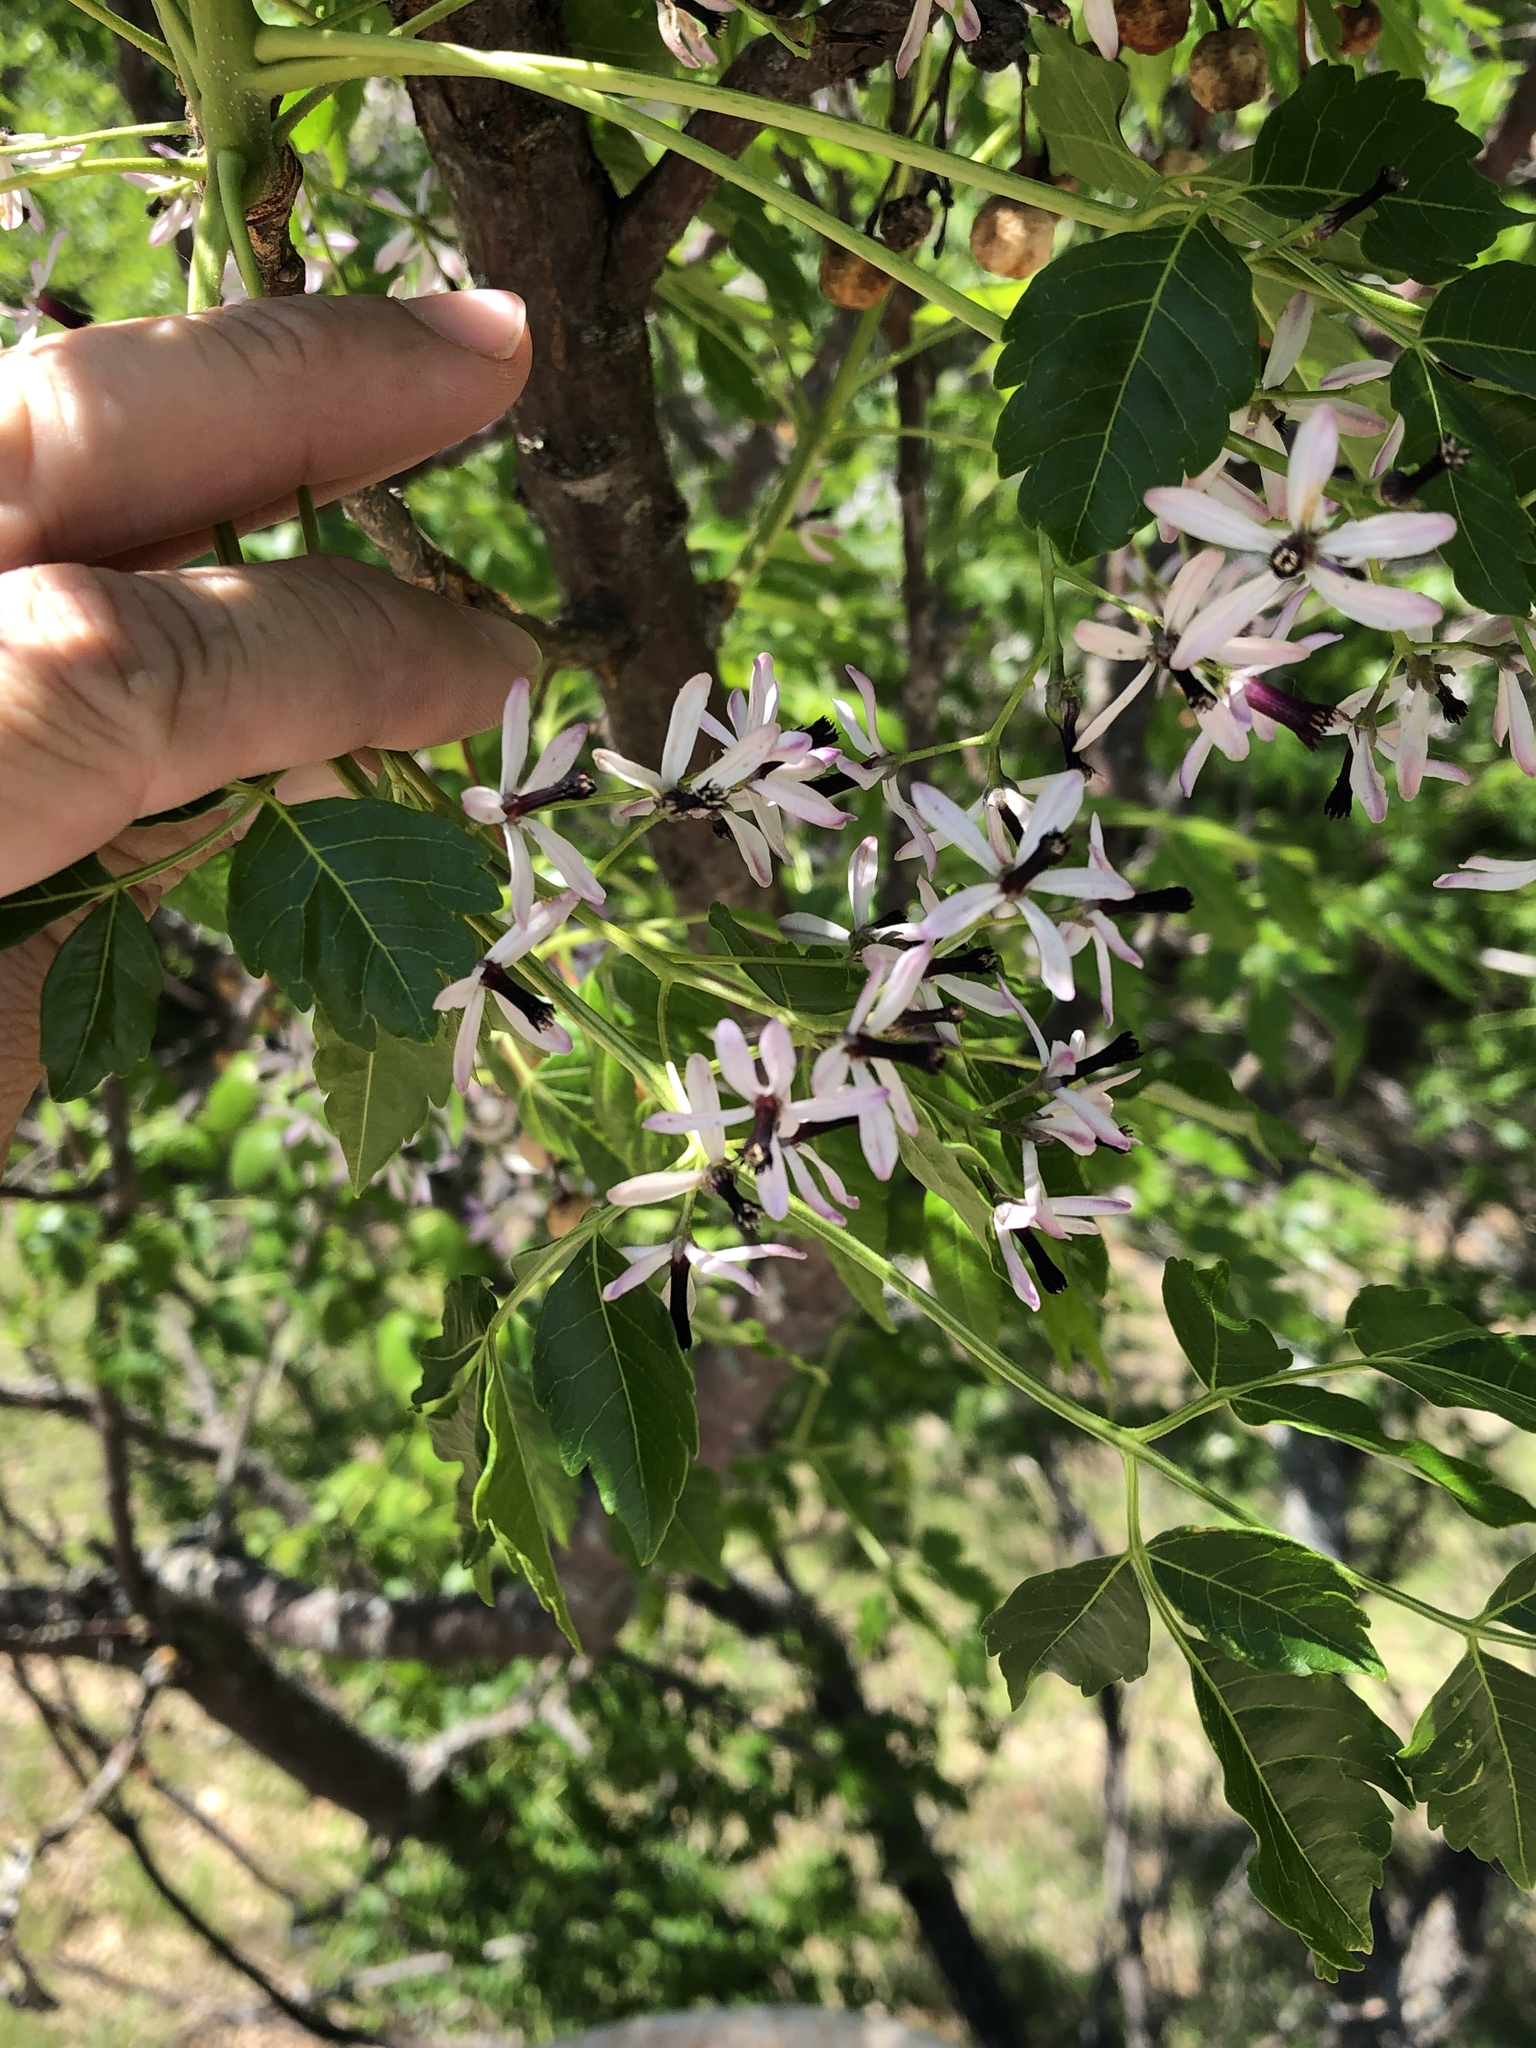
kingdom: Plantae
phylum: Tracheophyta
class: Magnoliopsida
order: Sapindales
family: Meliaceae
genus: Melia
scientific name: Melia azedarach
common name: Chinaberrytree
